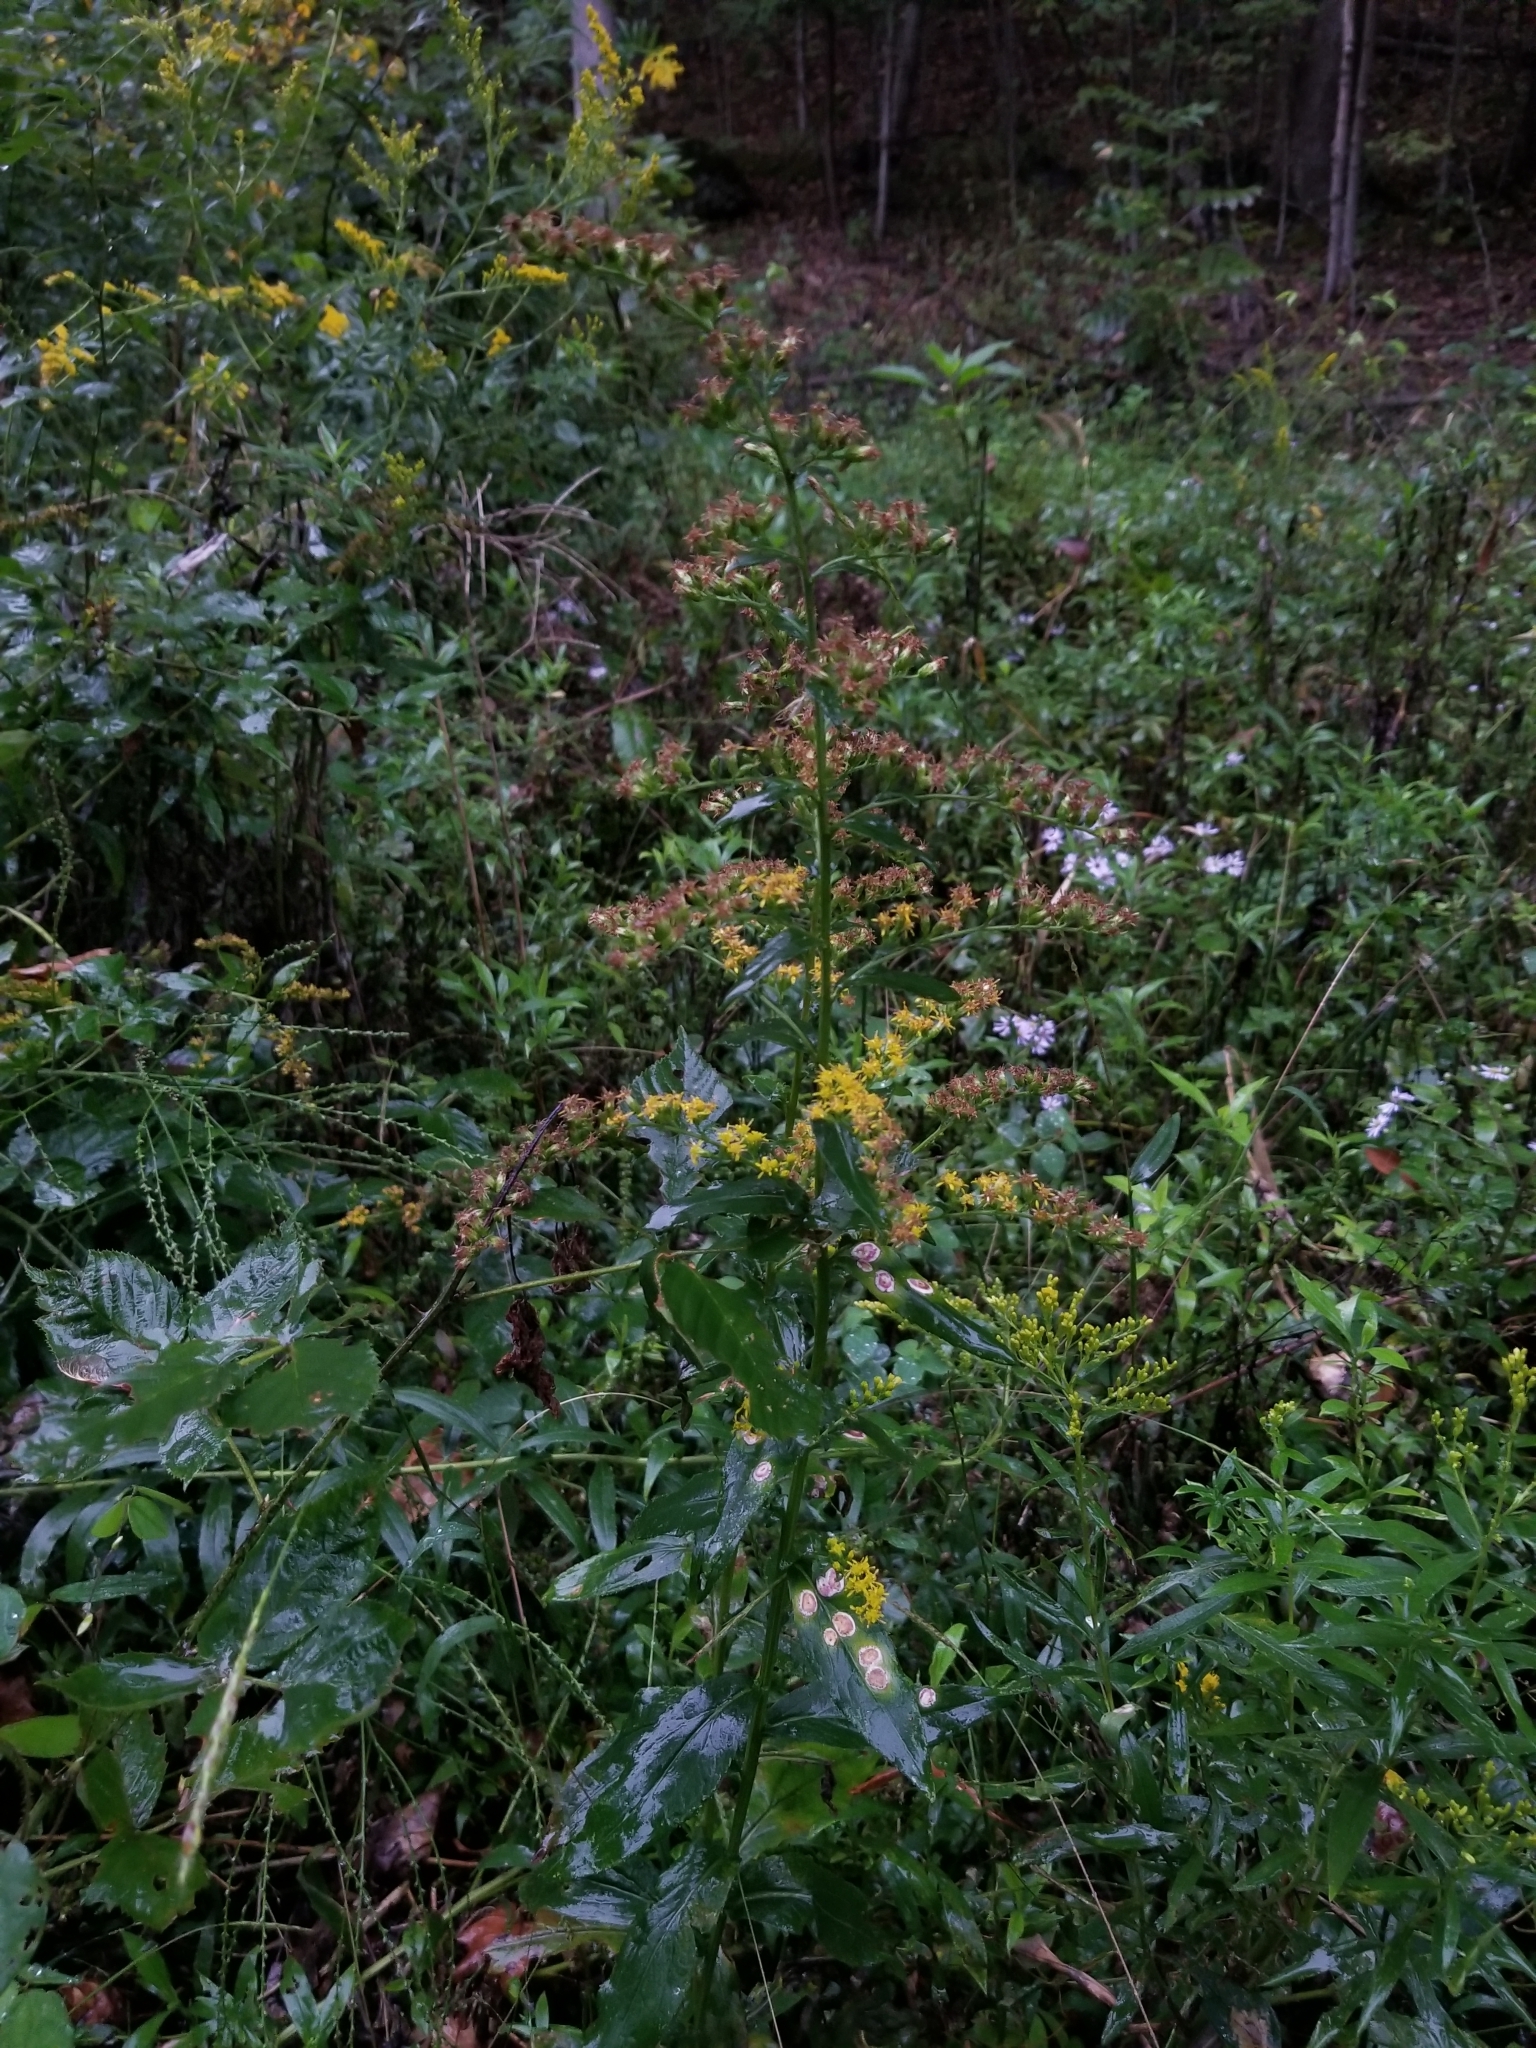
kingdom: Plantae
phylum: Tracheophyta
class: Magnoliopsida
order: Asterales
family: Asteraceae
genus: Solidago
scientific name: Solidago patula
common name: Rough-leaf goldenrod
